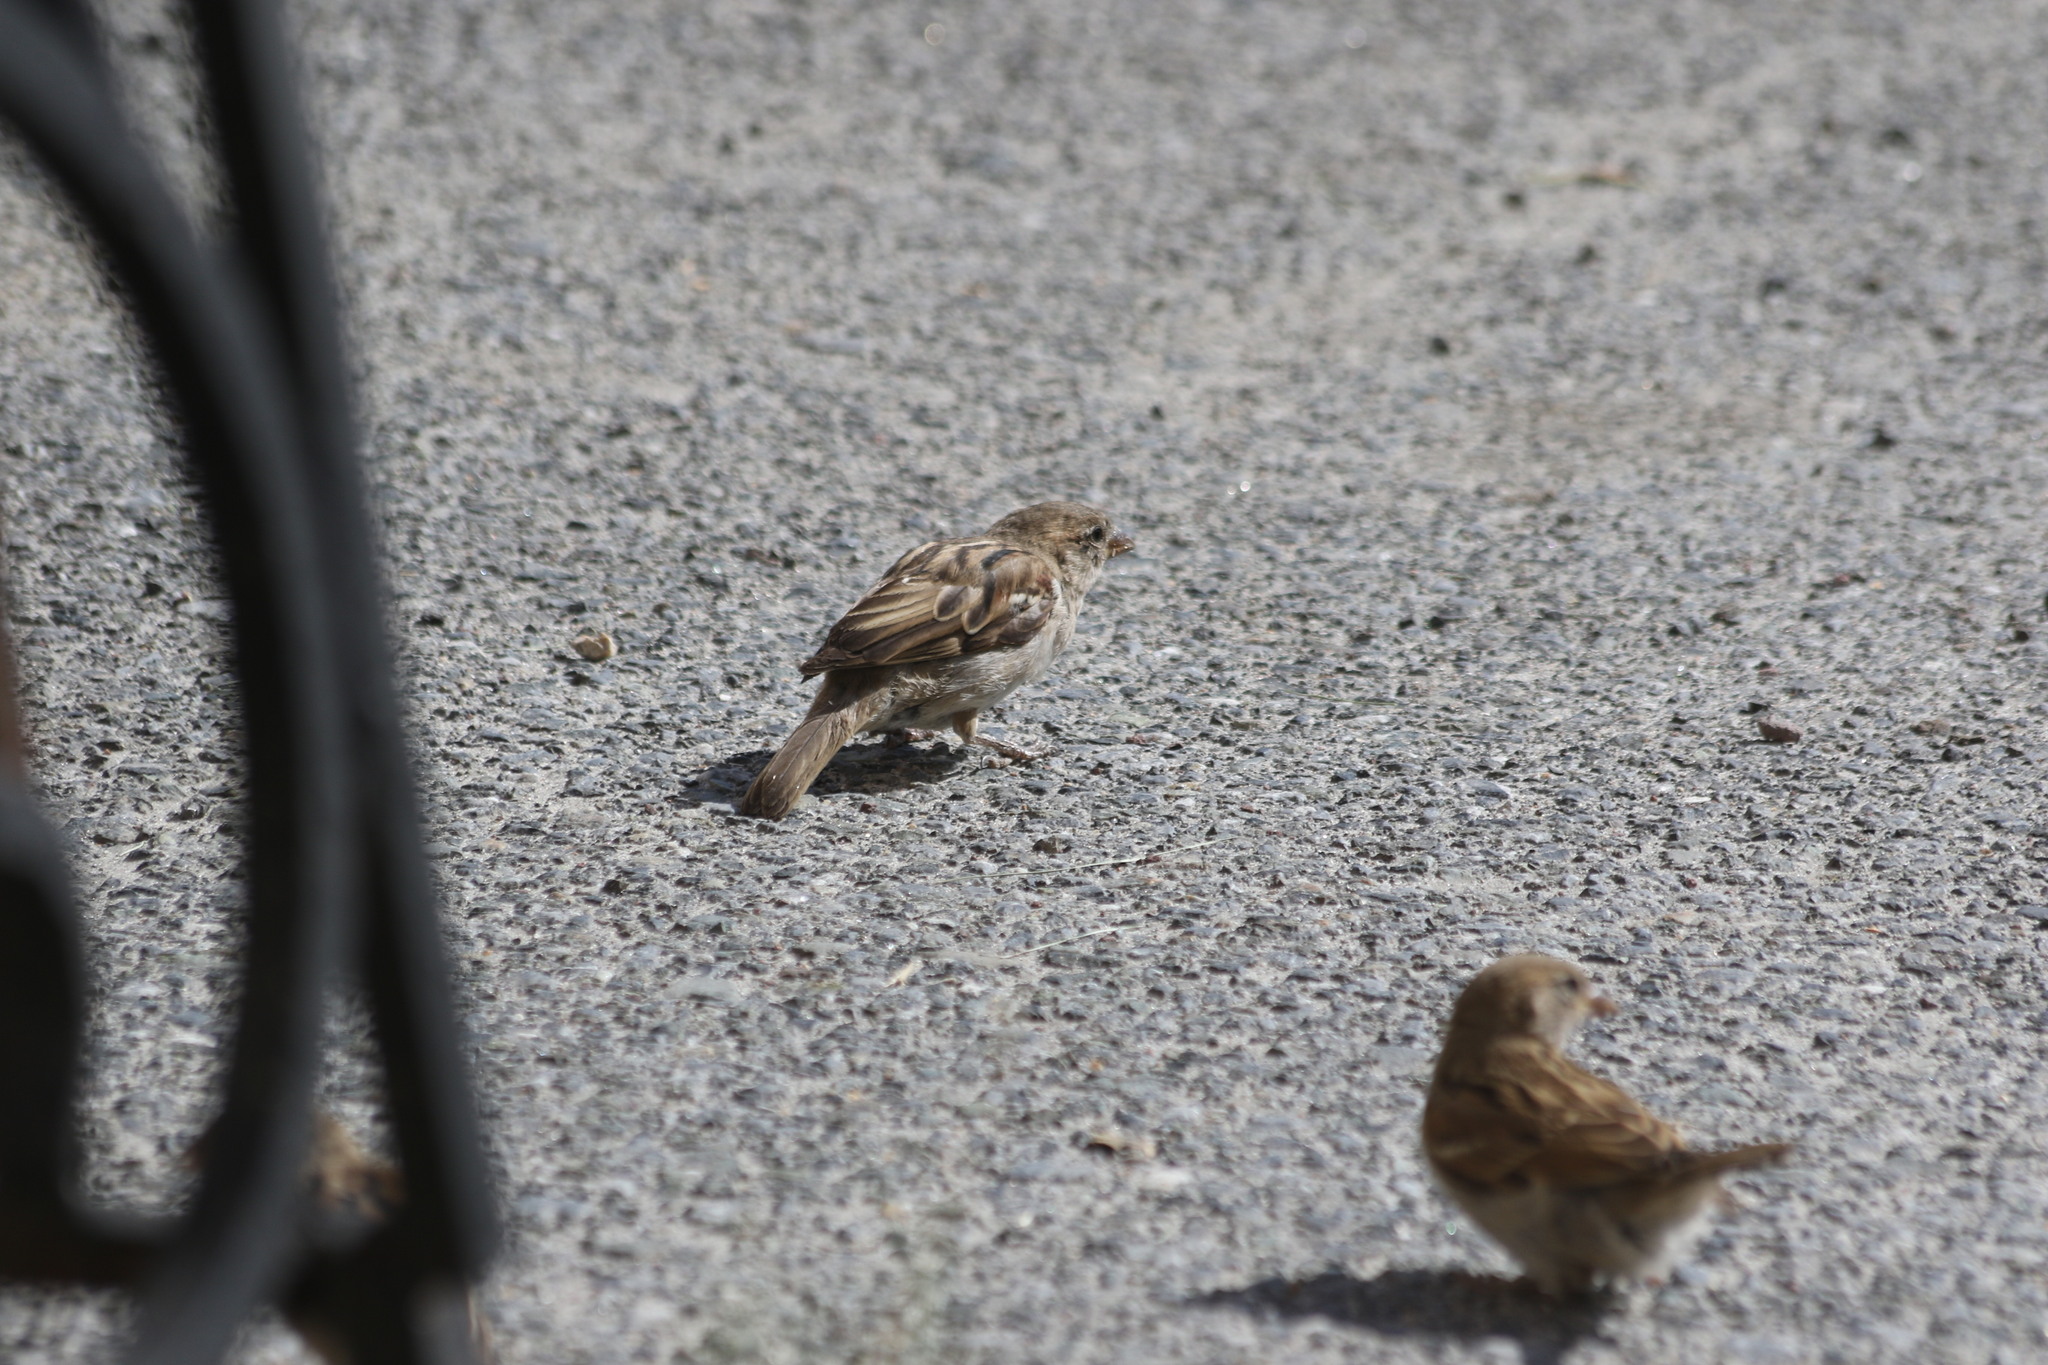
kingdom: Animalia
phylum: Chordata
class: Aves
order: Passeriformes
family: Passeridae
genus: Passer
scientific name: Passer domesticus
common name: House sparrow
